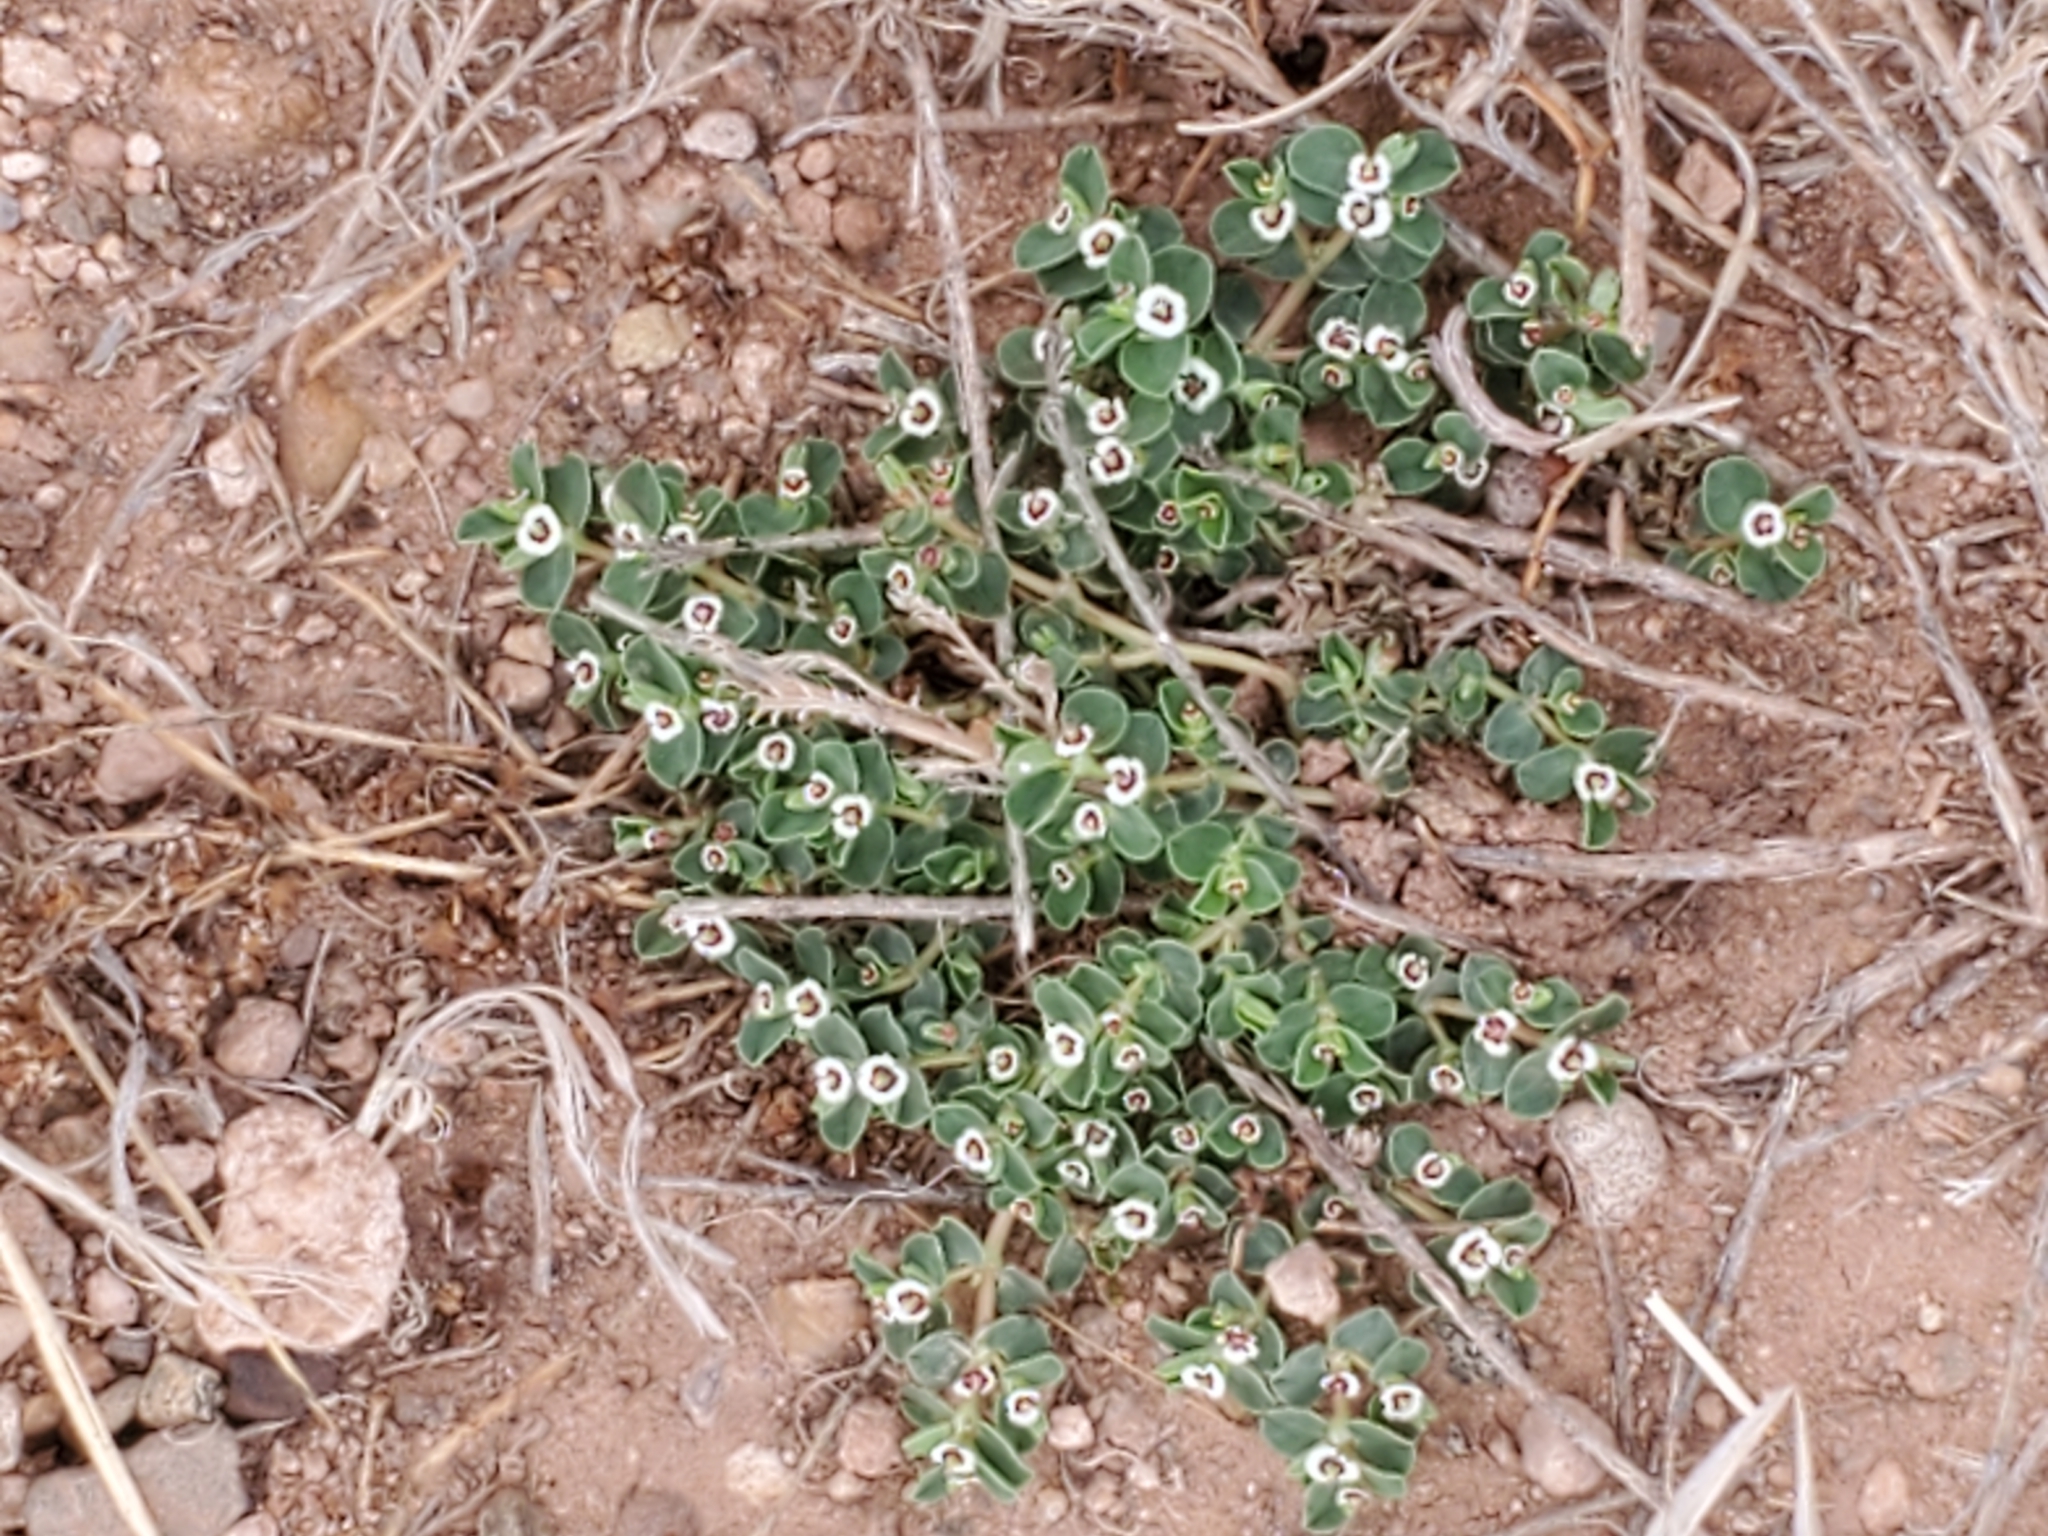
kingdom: Plantae
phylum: Tracheophyta
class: Magnoliopsida
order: Malpighiales
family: Euphorbiaceae
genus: Euphorbia
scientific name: Euphorbia albomarginata
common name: Whitemargin sandmat
